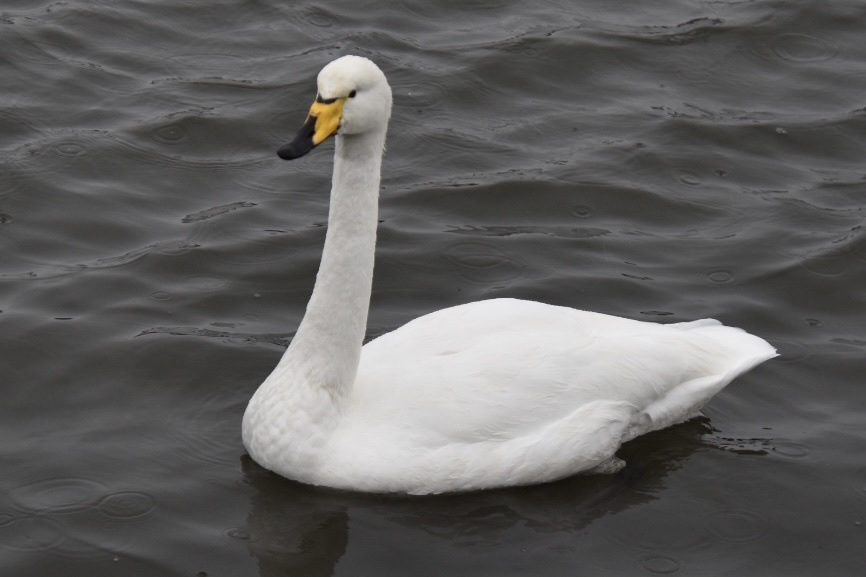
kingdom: Animalia
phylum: Chordata
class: Aves
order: Anseriformes
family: Anatidae
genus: Cygnus
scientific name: Cygnus cygnus
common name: Whooper swan
